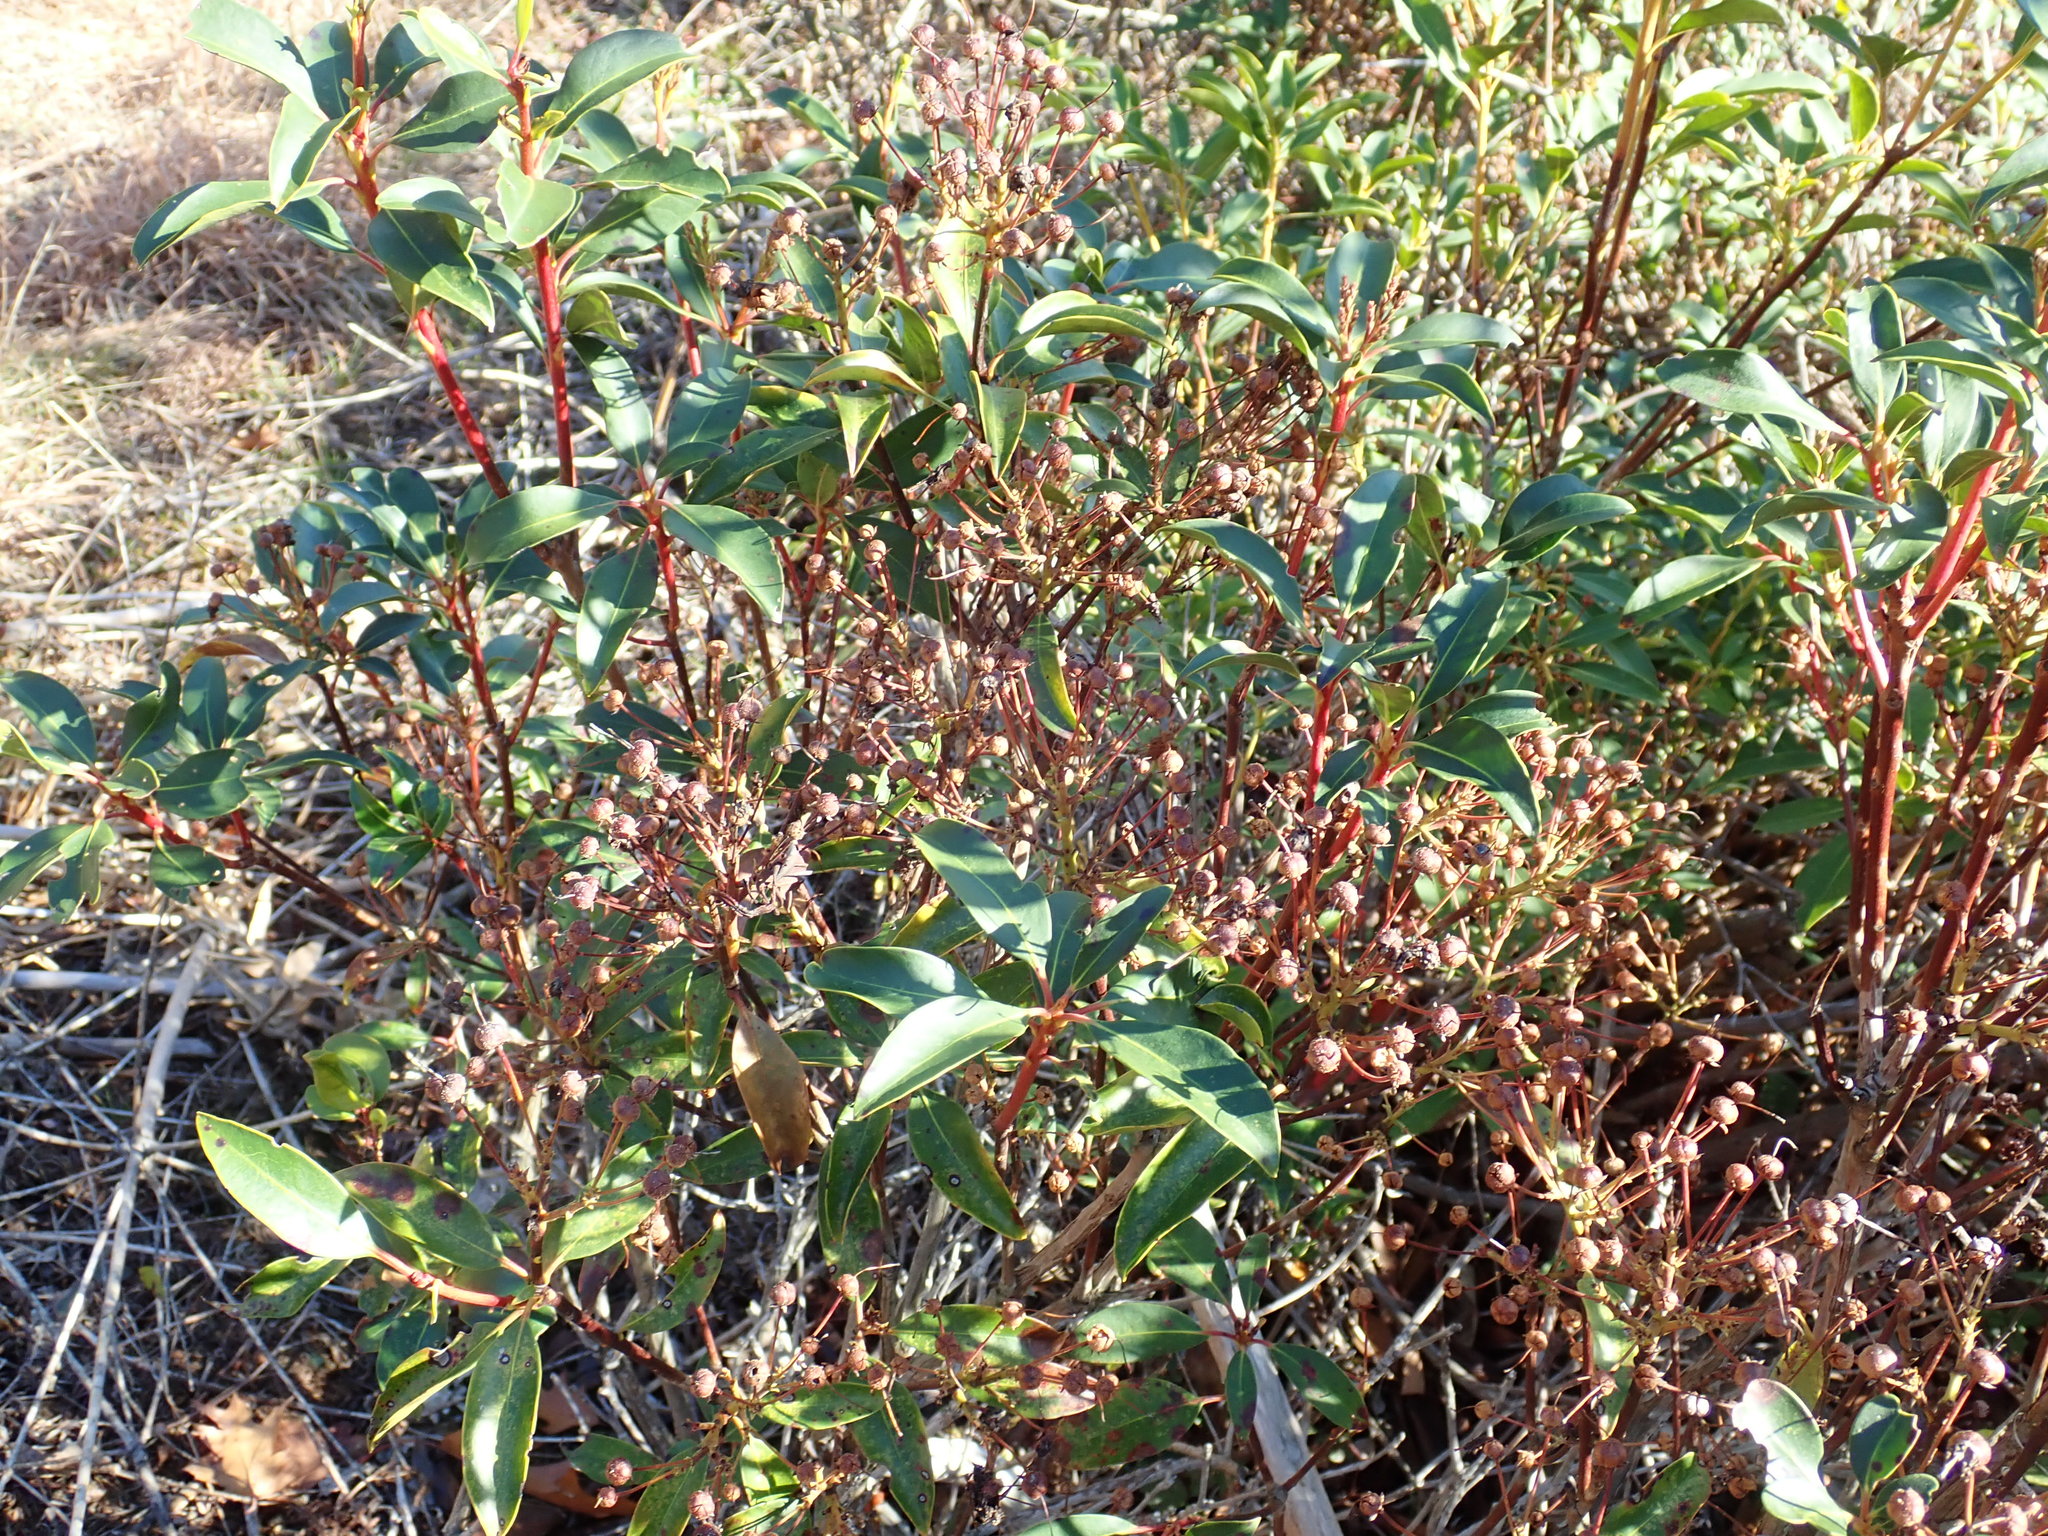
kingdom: Plantae
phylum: Tracheophyta
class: Magnoliopsida
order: Ericales
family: Ericaceae
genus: Kalmia
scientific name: Kalmia latifolia
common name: Mountain-laurel
